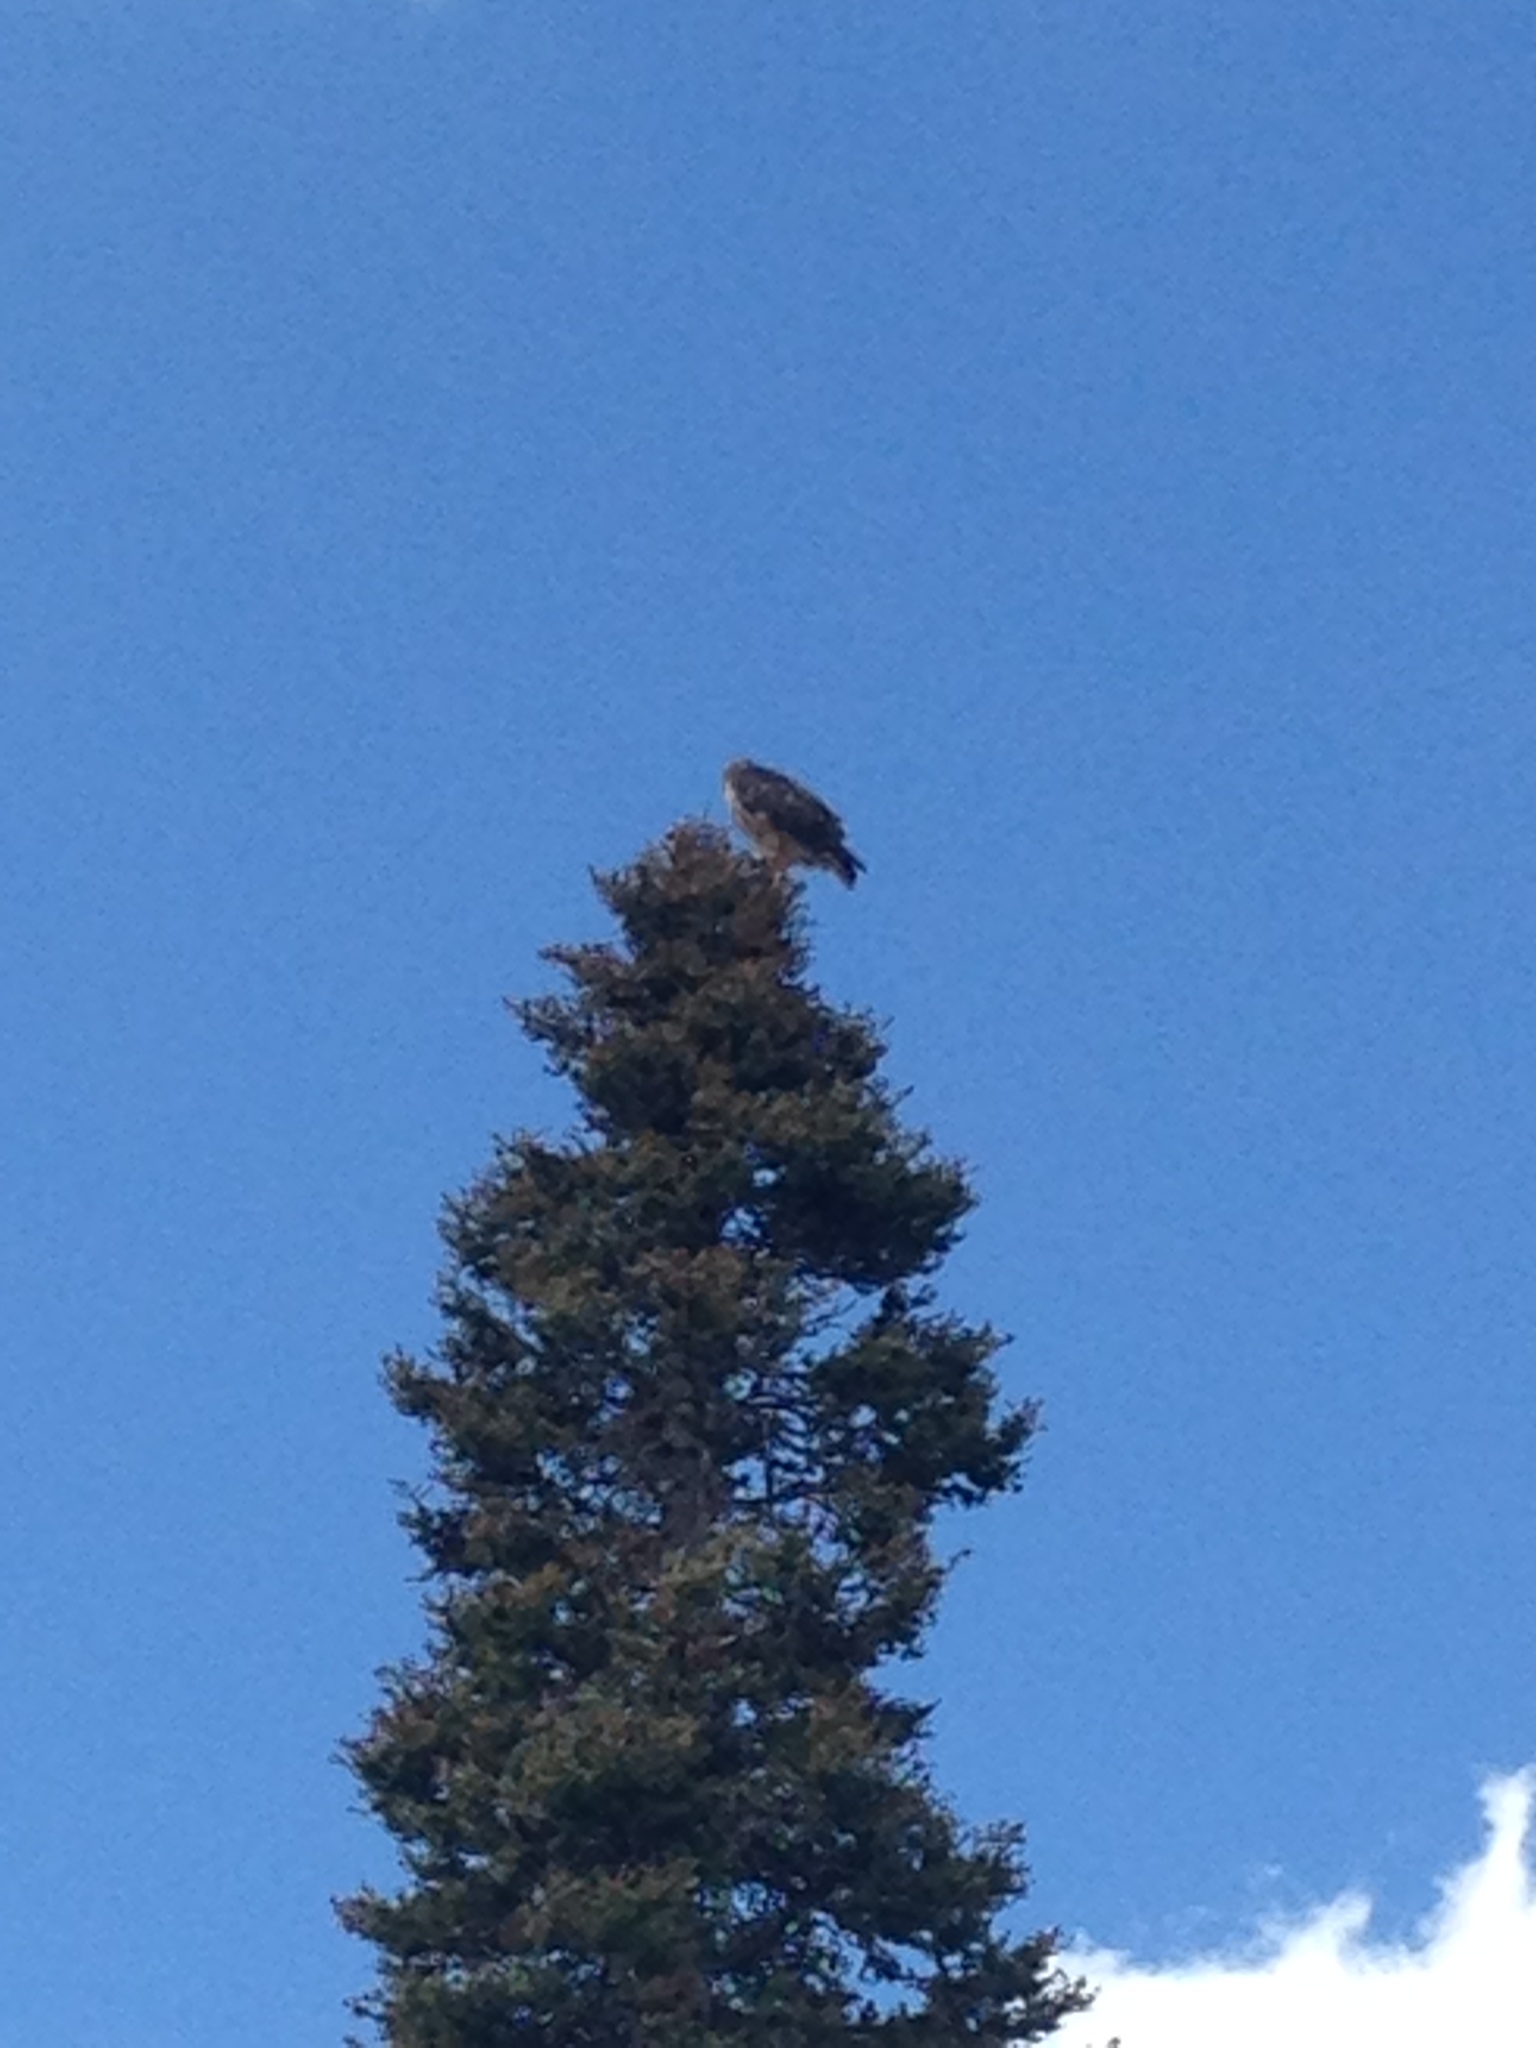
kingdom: Animalia
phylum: Chordata
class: Aves
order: Accipitriformes
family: Accipitridae
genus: Buteo
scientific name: Buteo jamaicensis
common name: Red-tailed hawk
